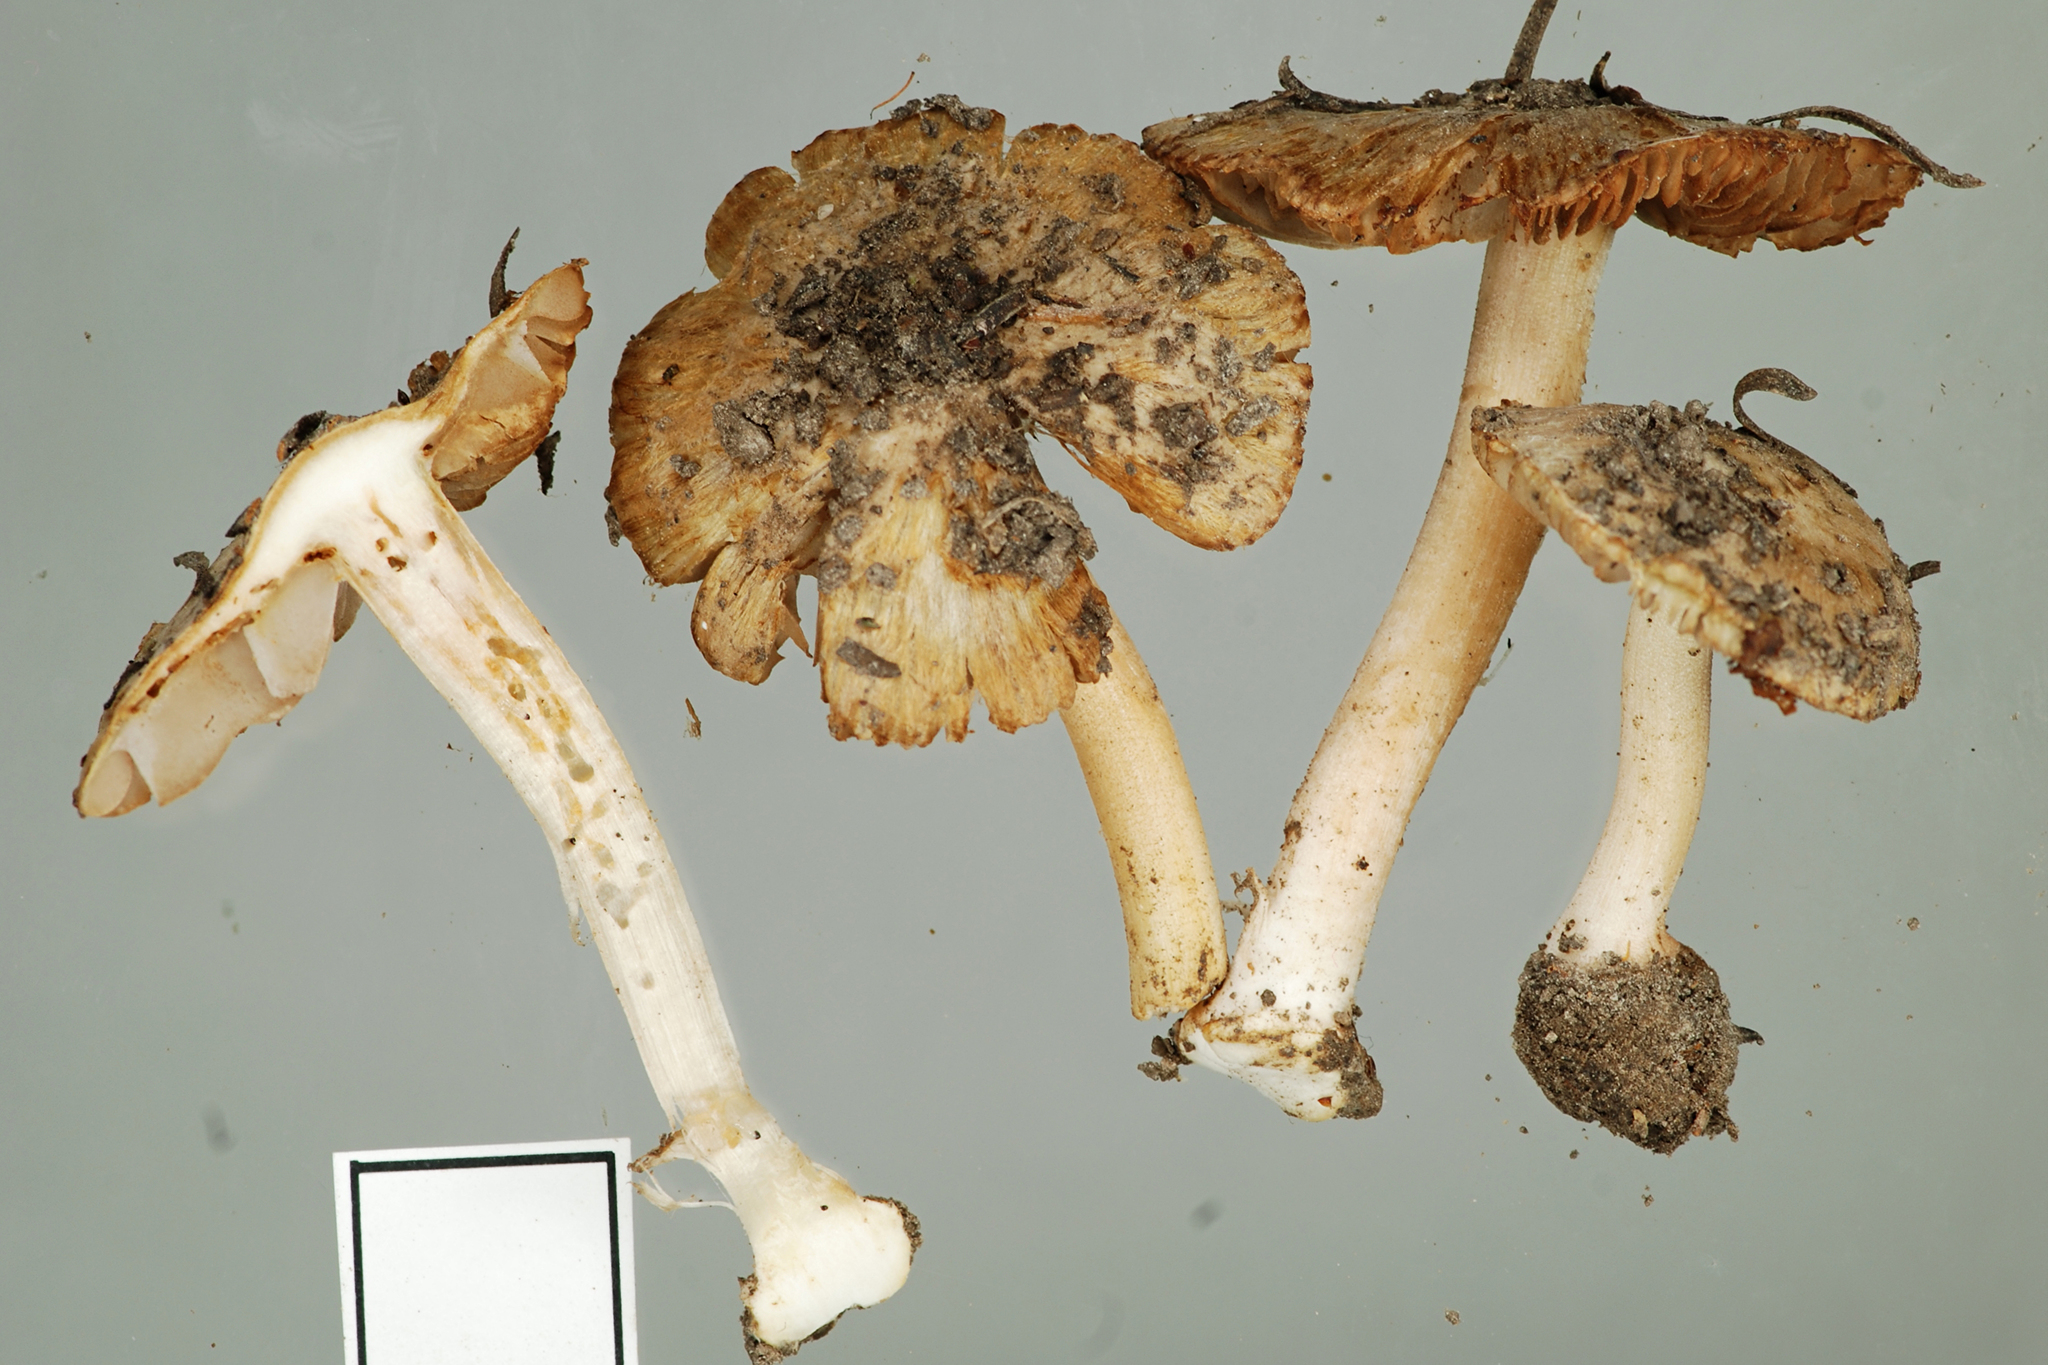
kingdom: Fungi
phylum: Basidiomycota
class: Agaricomycetes
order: Agaricales
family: Inocybaceae
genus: Inocybe
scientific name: Inocybe fulvilubrica
